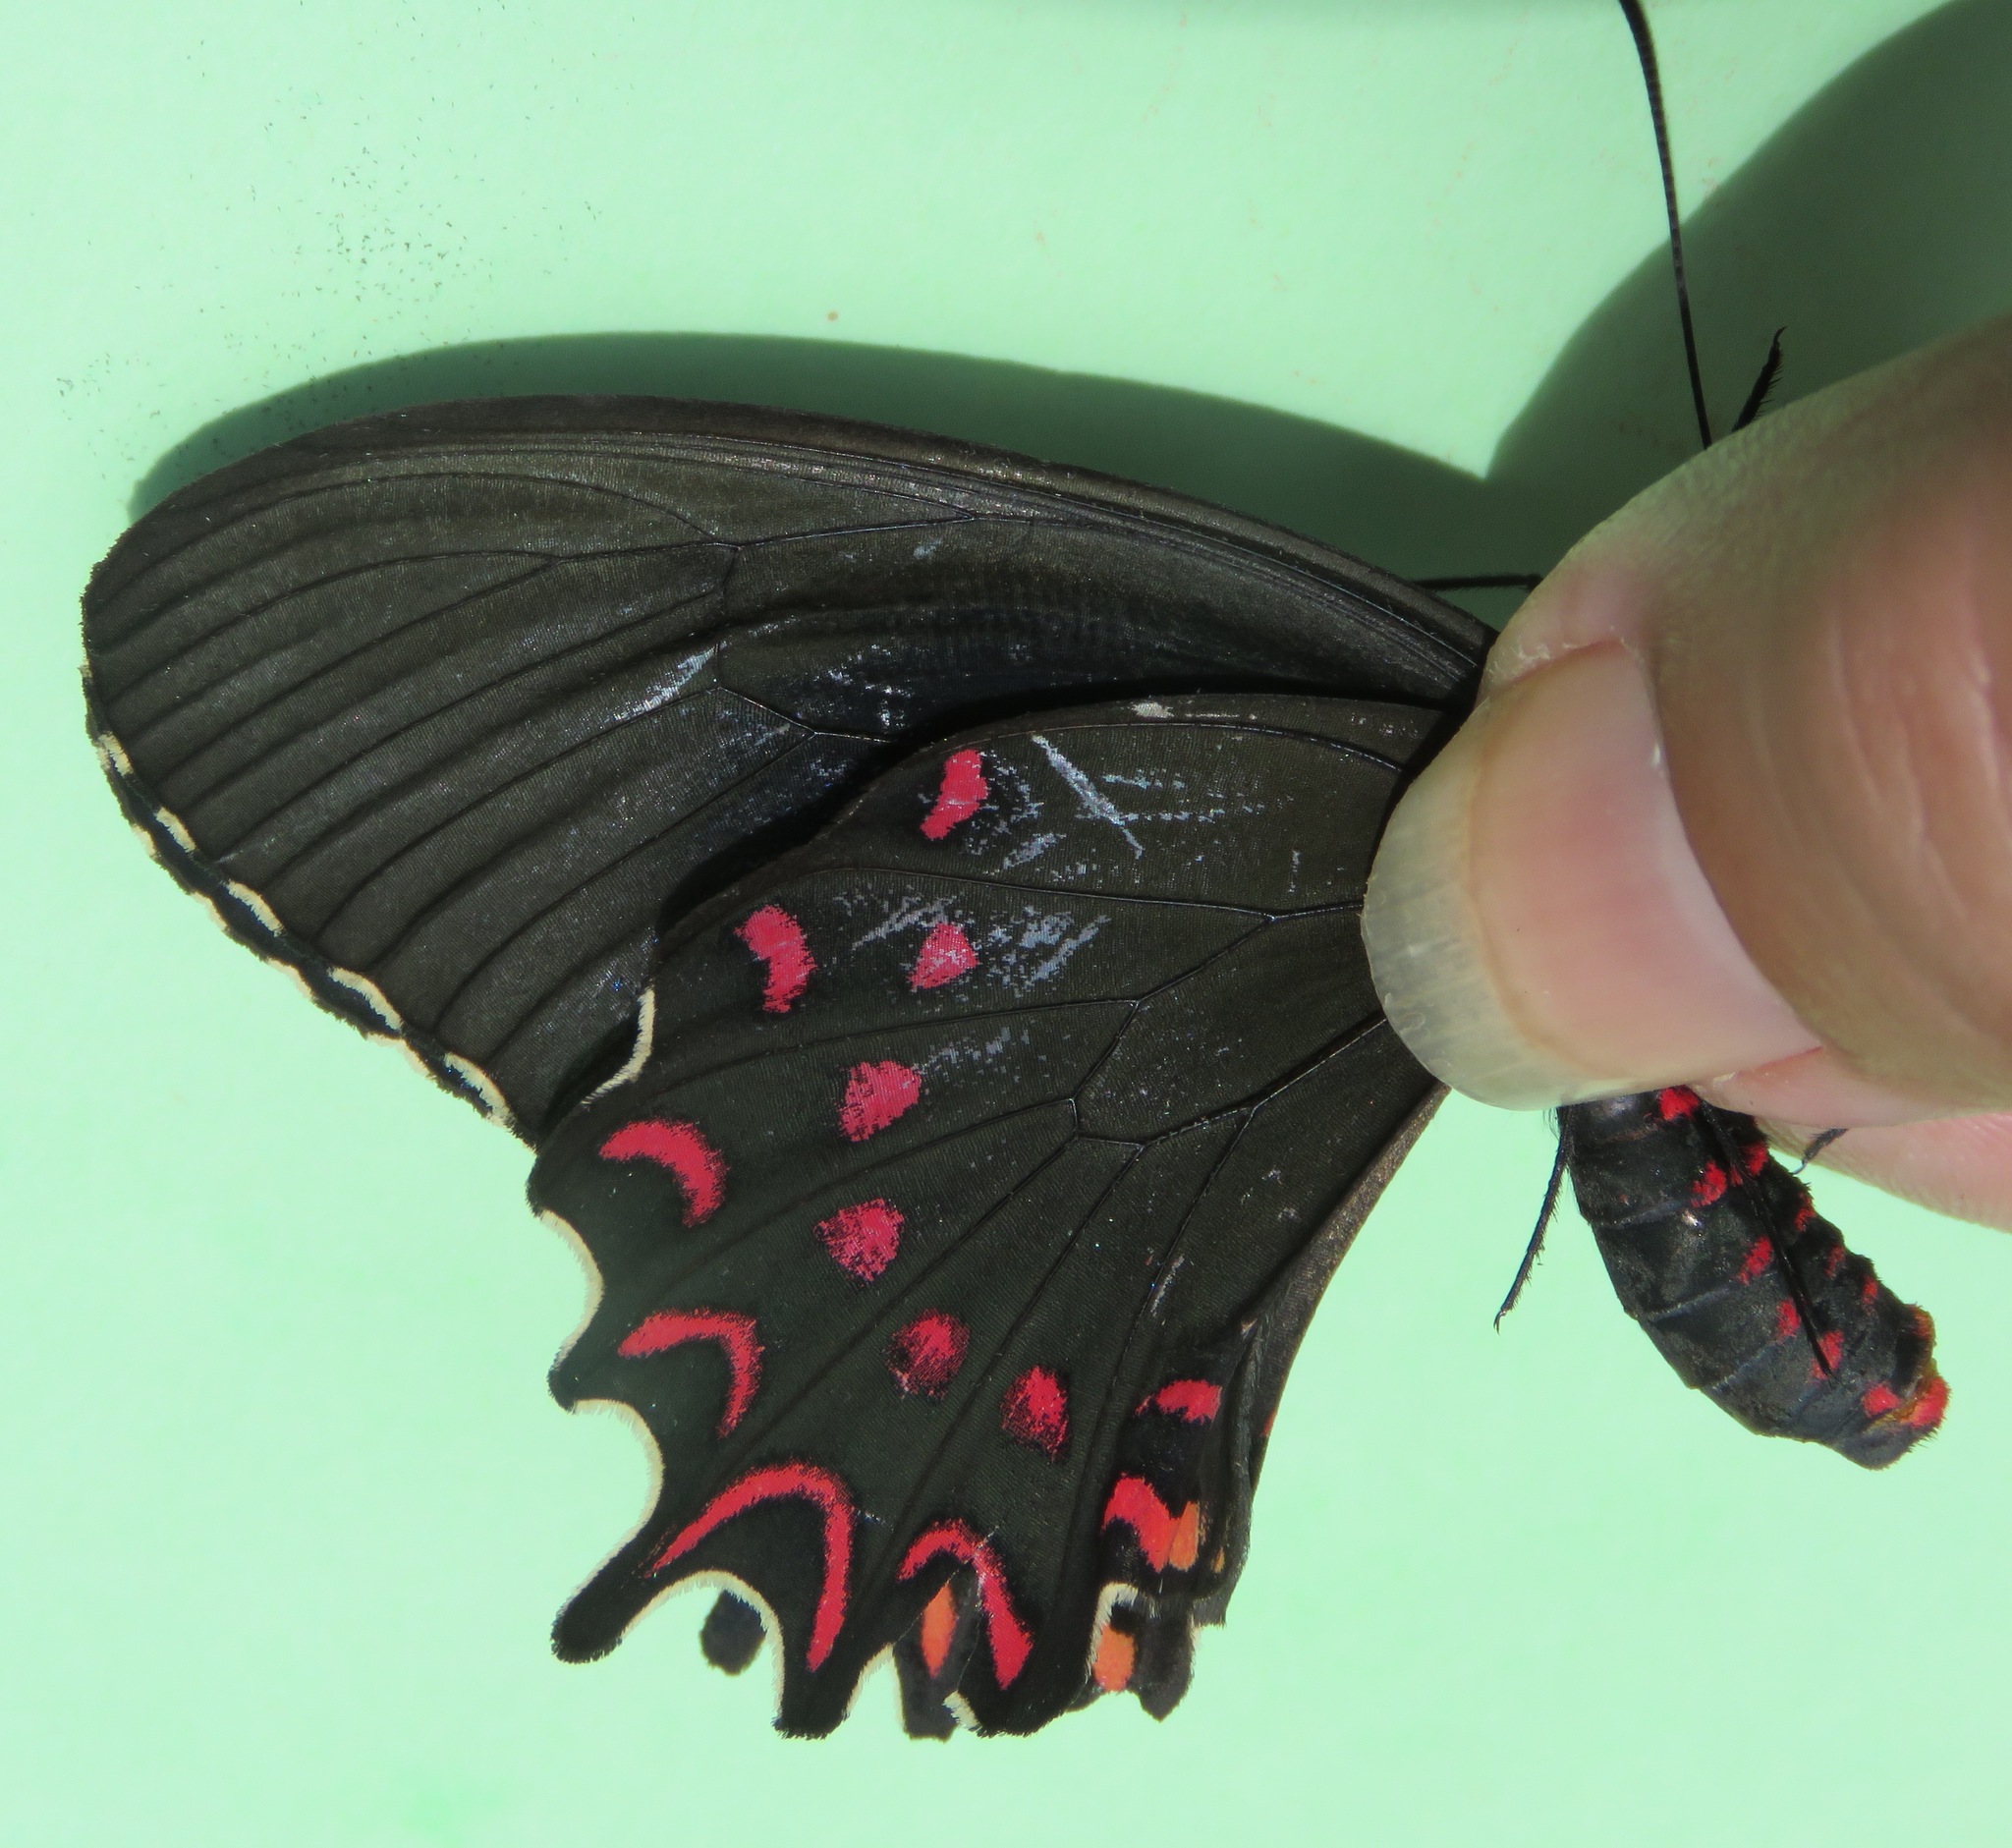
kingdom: Animalia
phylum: Arthropoda
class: Insecta
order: Lepidoptera
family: Papilionidae
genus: Parides
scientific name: Parides photinus
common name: Pink-spotted cattleheart
